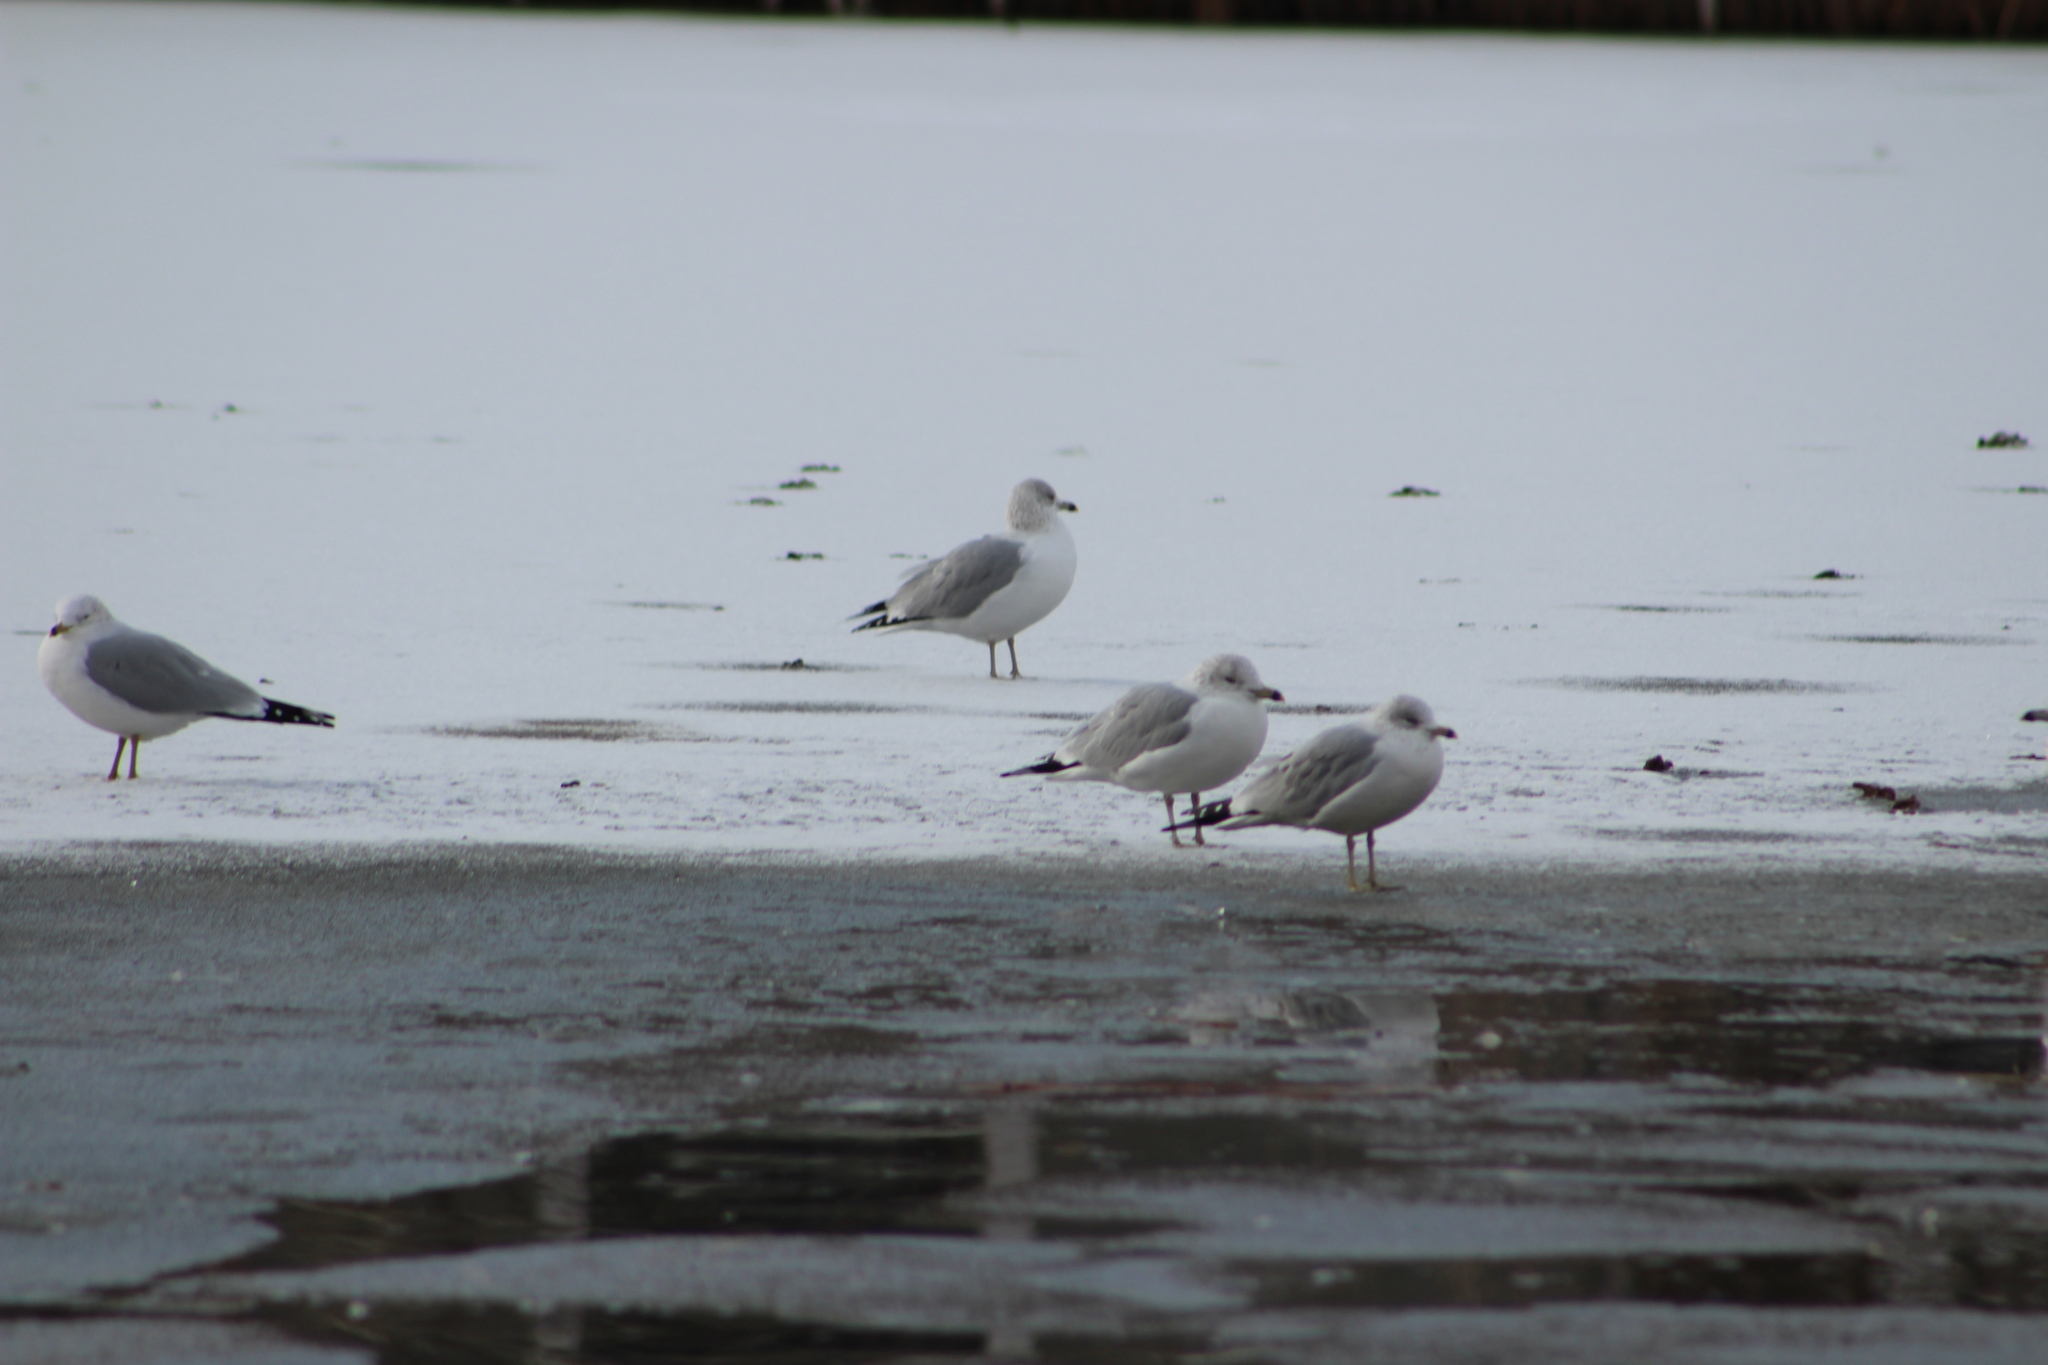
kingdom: Animalia
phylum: Chordata
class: Aves
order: Charadriiformes
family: Laridae
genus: Larus
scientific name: Larus delawarensis
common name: Ring-billed gull
